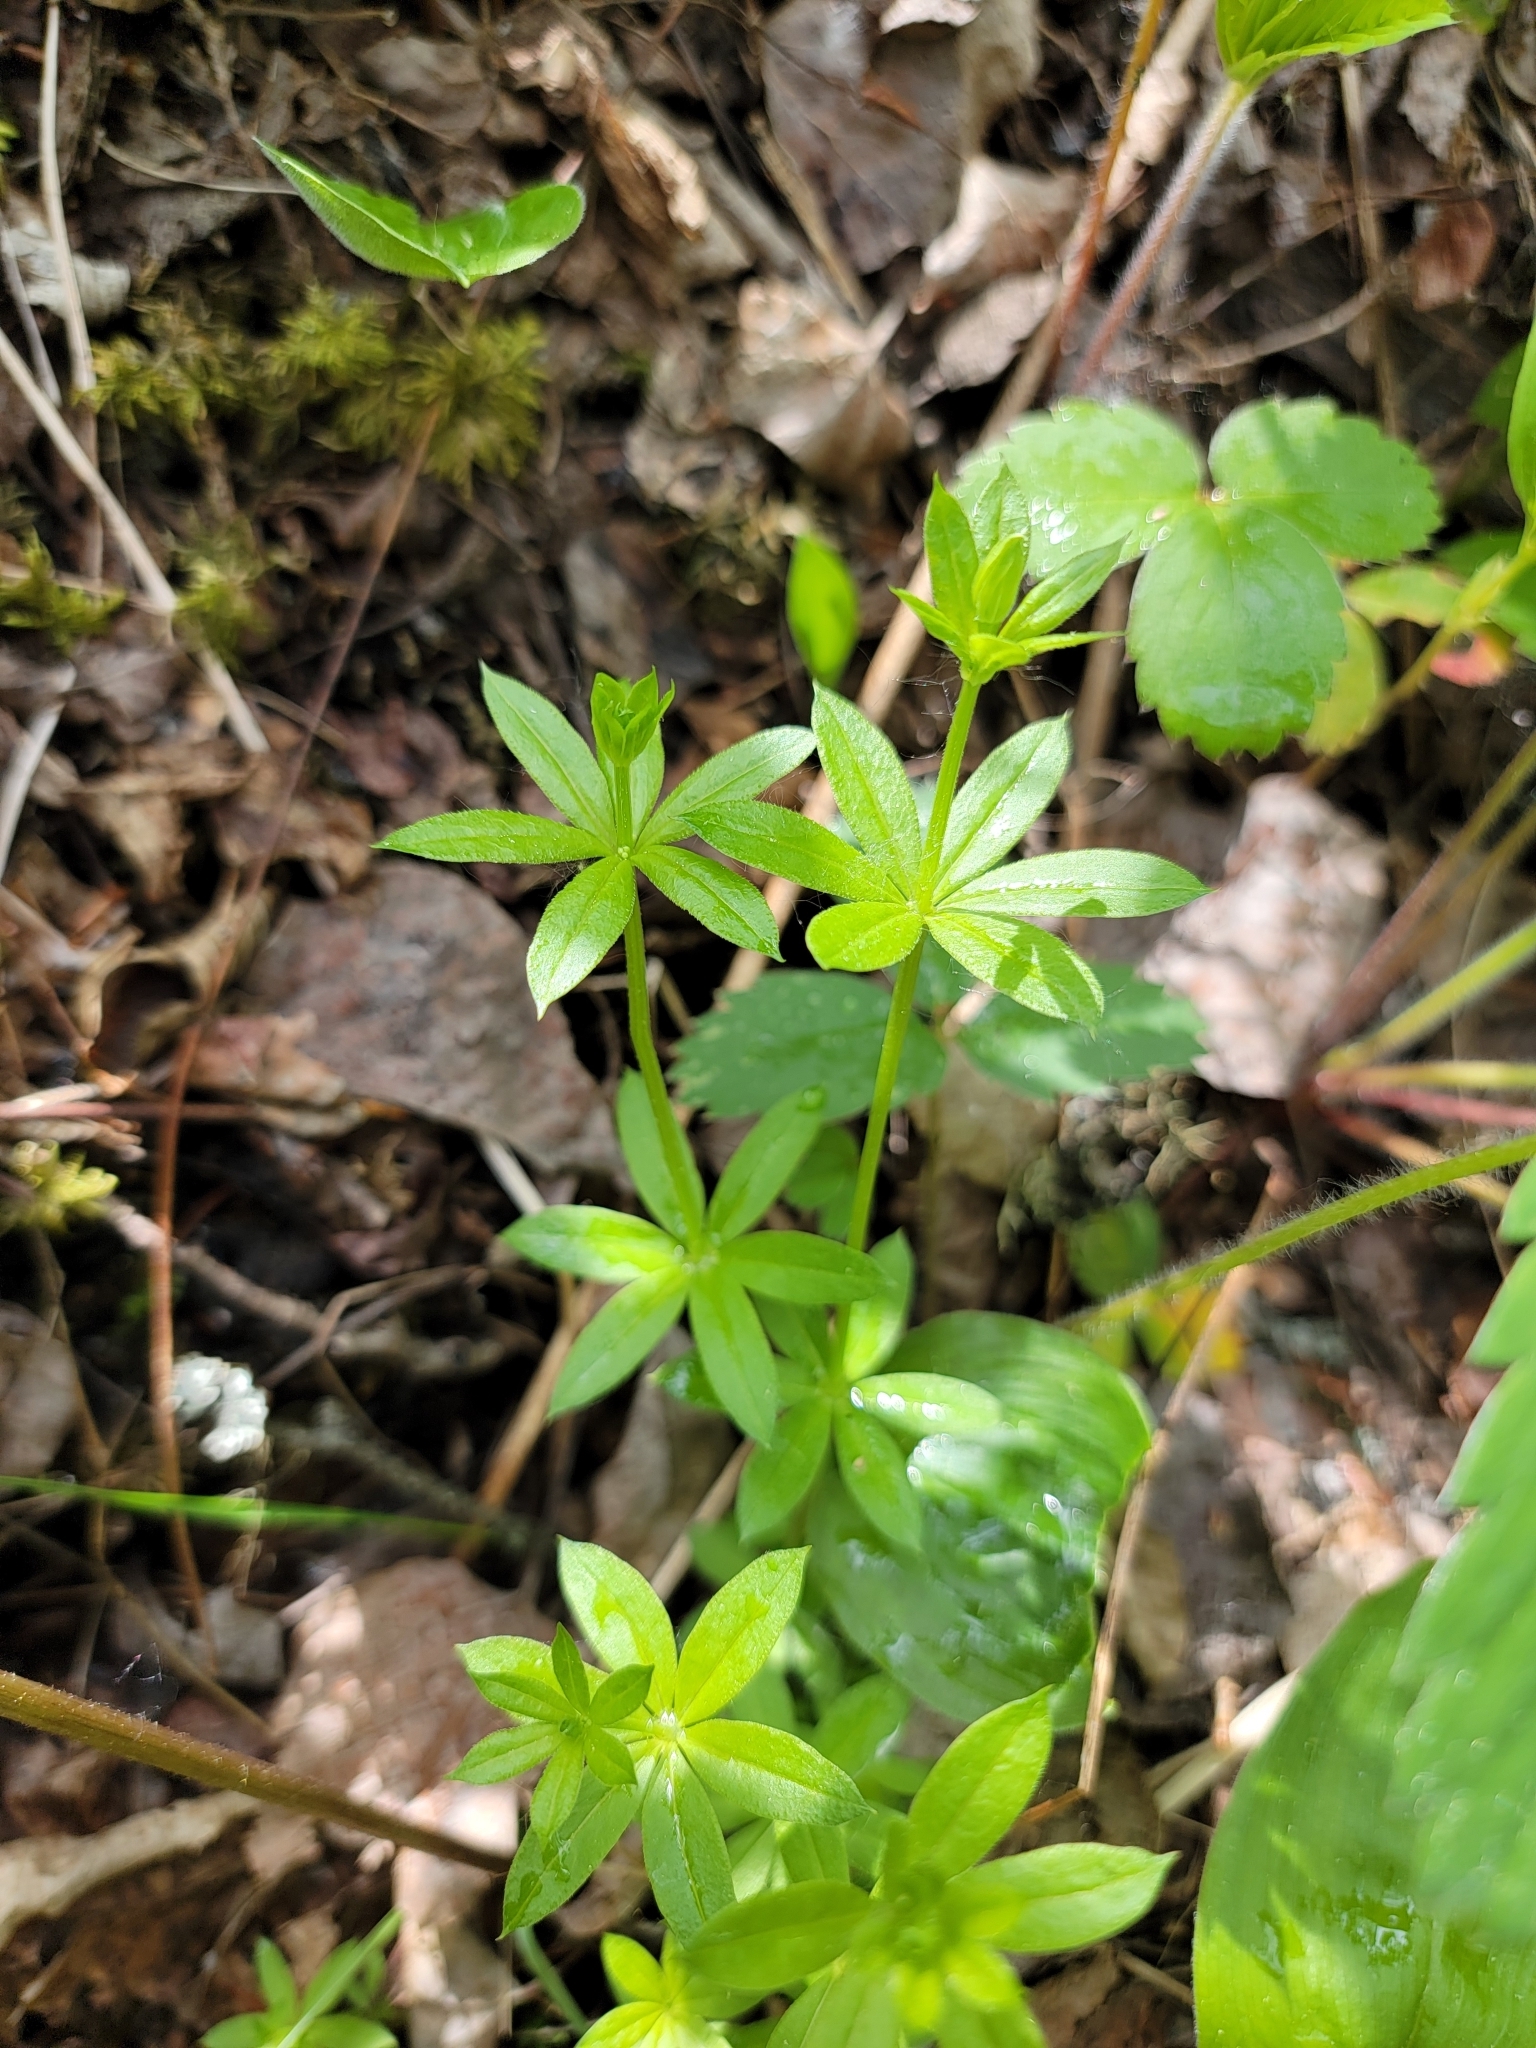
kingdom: Plantae
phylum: Tracheophyta
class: Magnoliopsida
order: Gentianales
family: Rubiaceae
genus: Galium
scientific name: Galium triflorum
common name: Fragrant bedstraw
